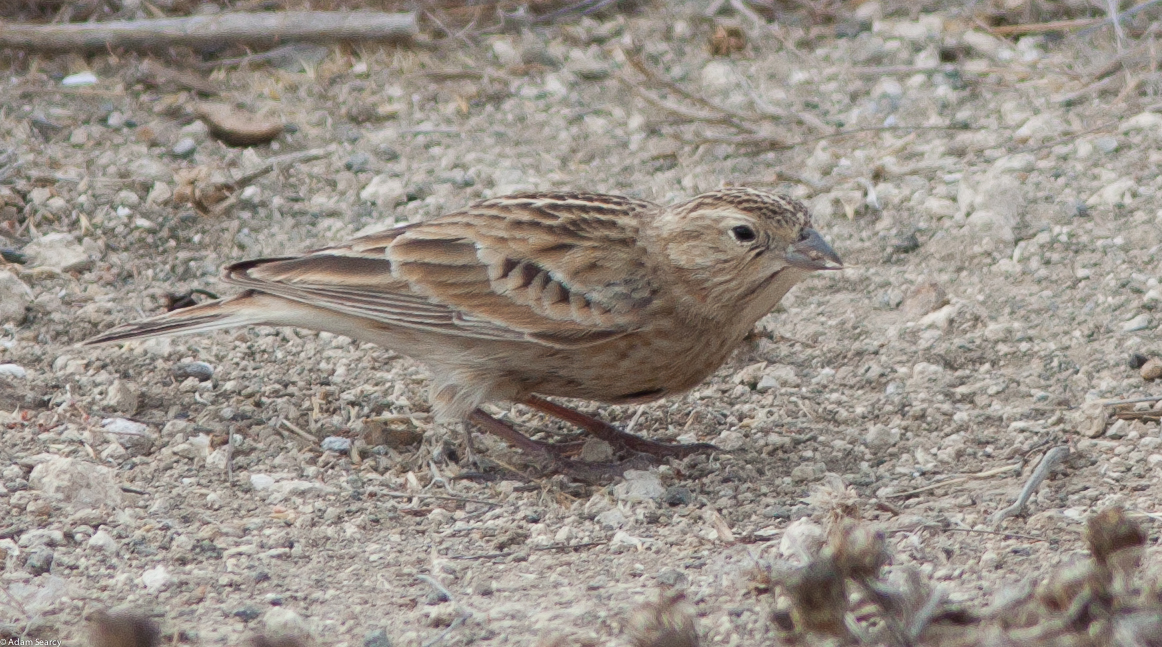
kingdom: Animalia
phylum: Chordata
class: Aves
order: Passeriformes
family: Calcariidae
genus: Calcarius
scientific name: Calcarius ornatus
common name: Chestnut-collared longspur
